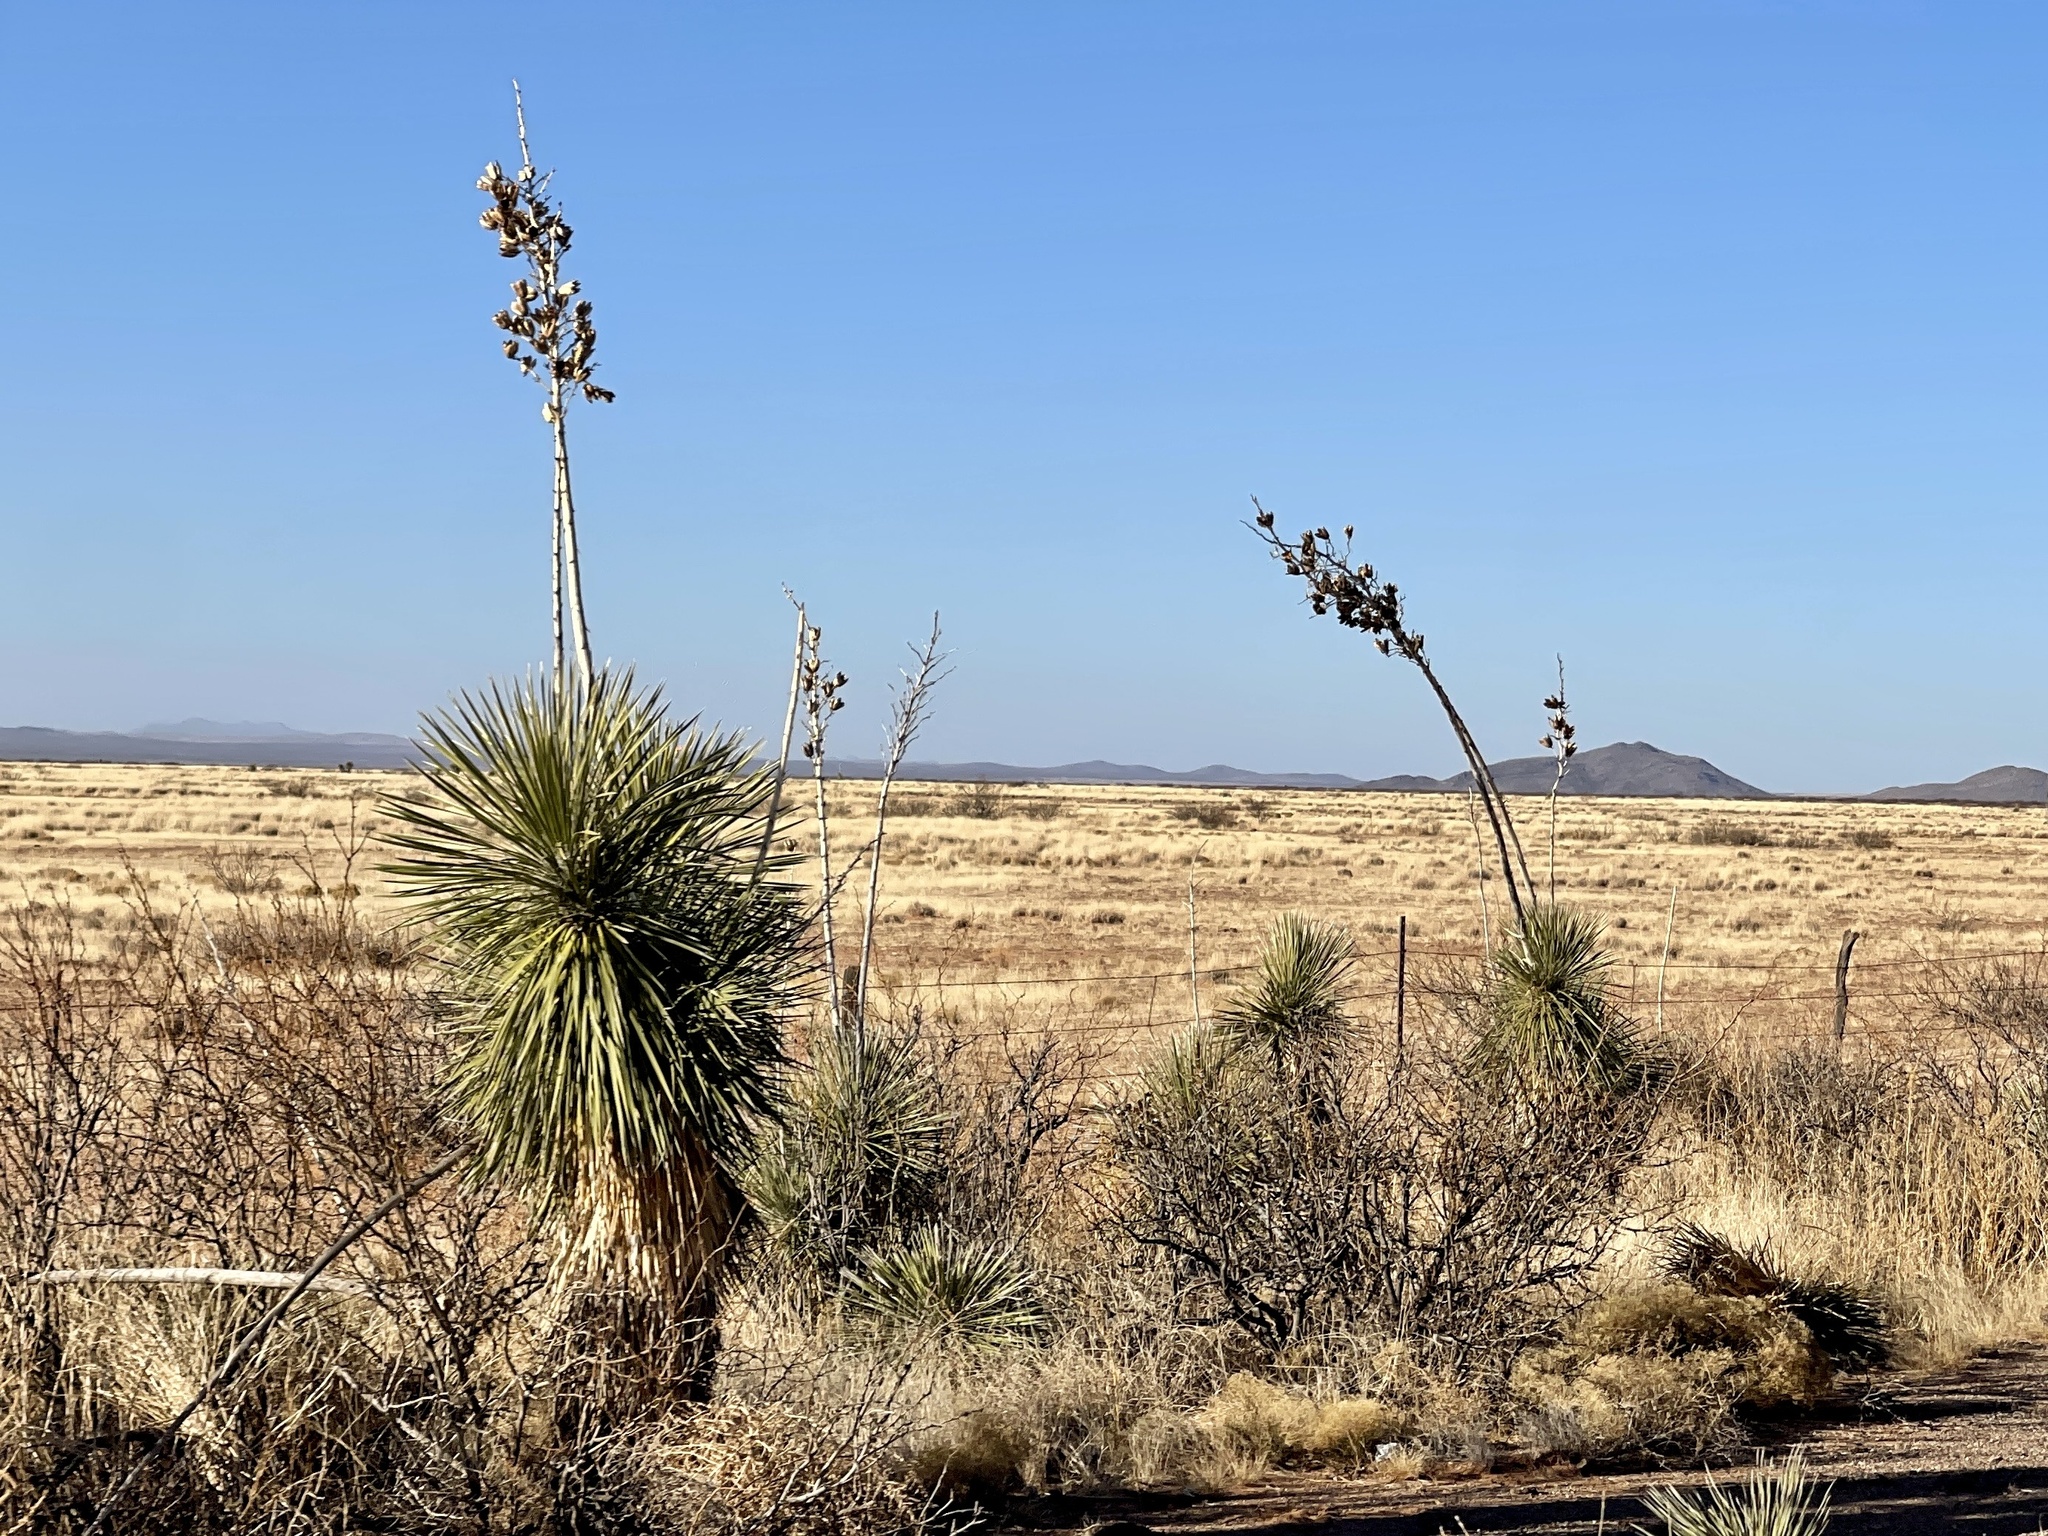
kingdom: Plantae
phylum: Tracheophyta
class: Liliopsida
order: Asparagales
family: Asparagaceae
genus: Yucca
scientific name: Yucca elata
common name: Palmella
